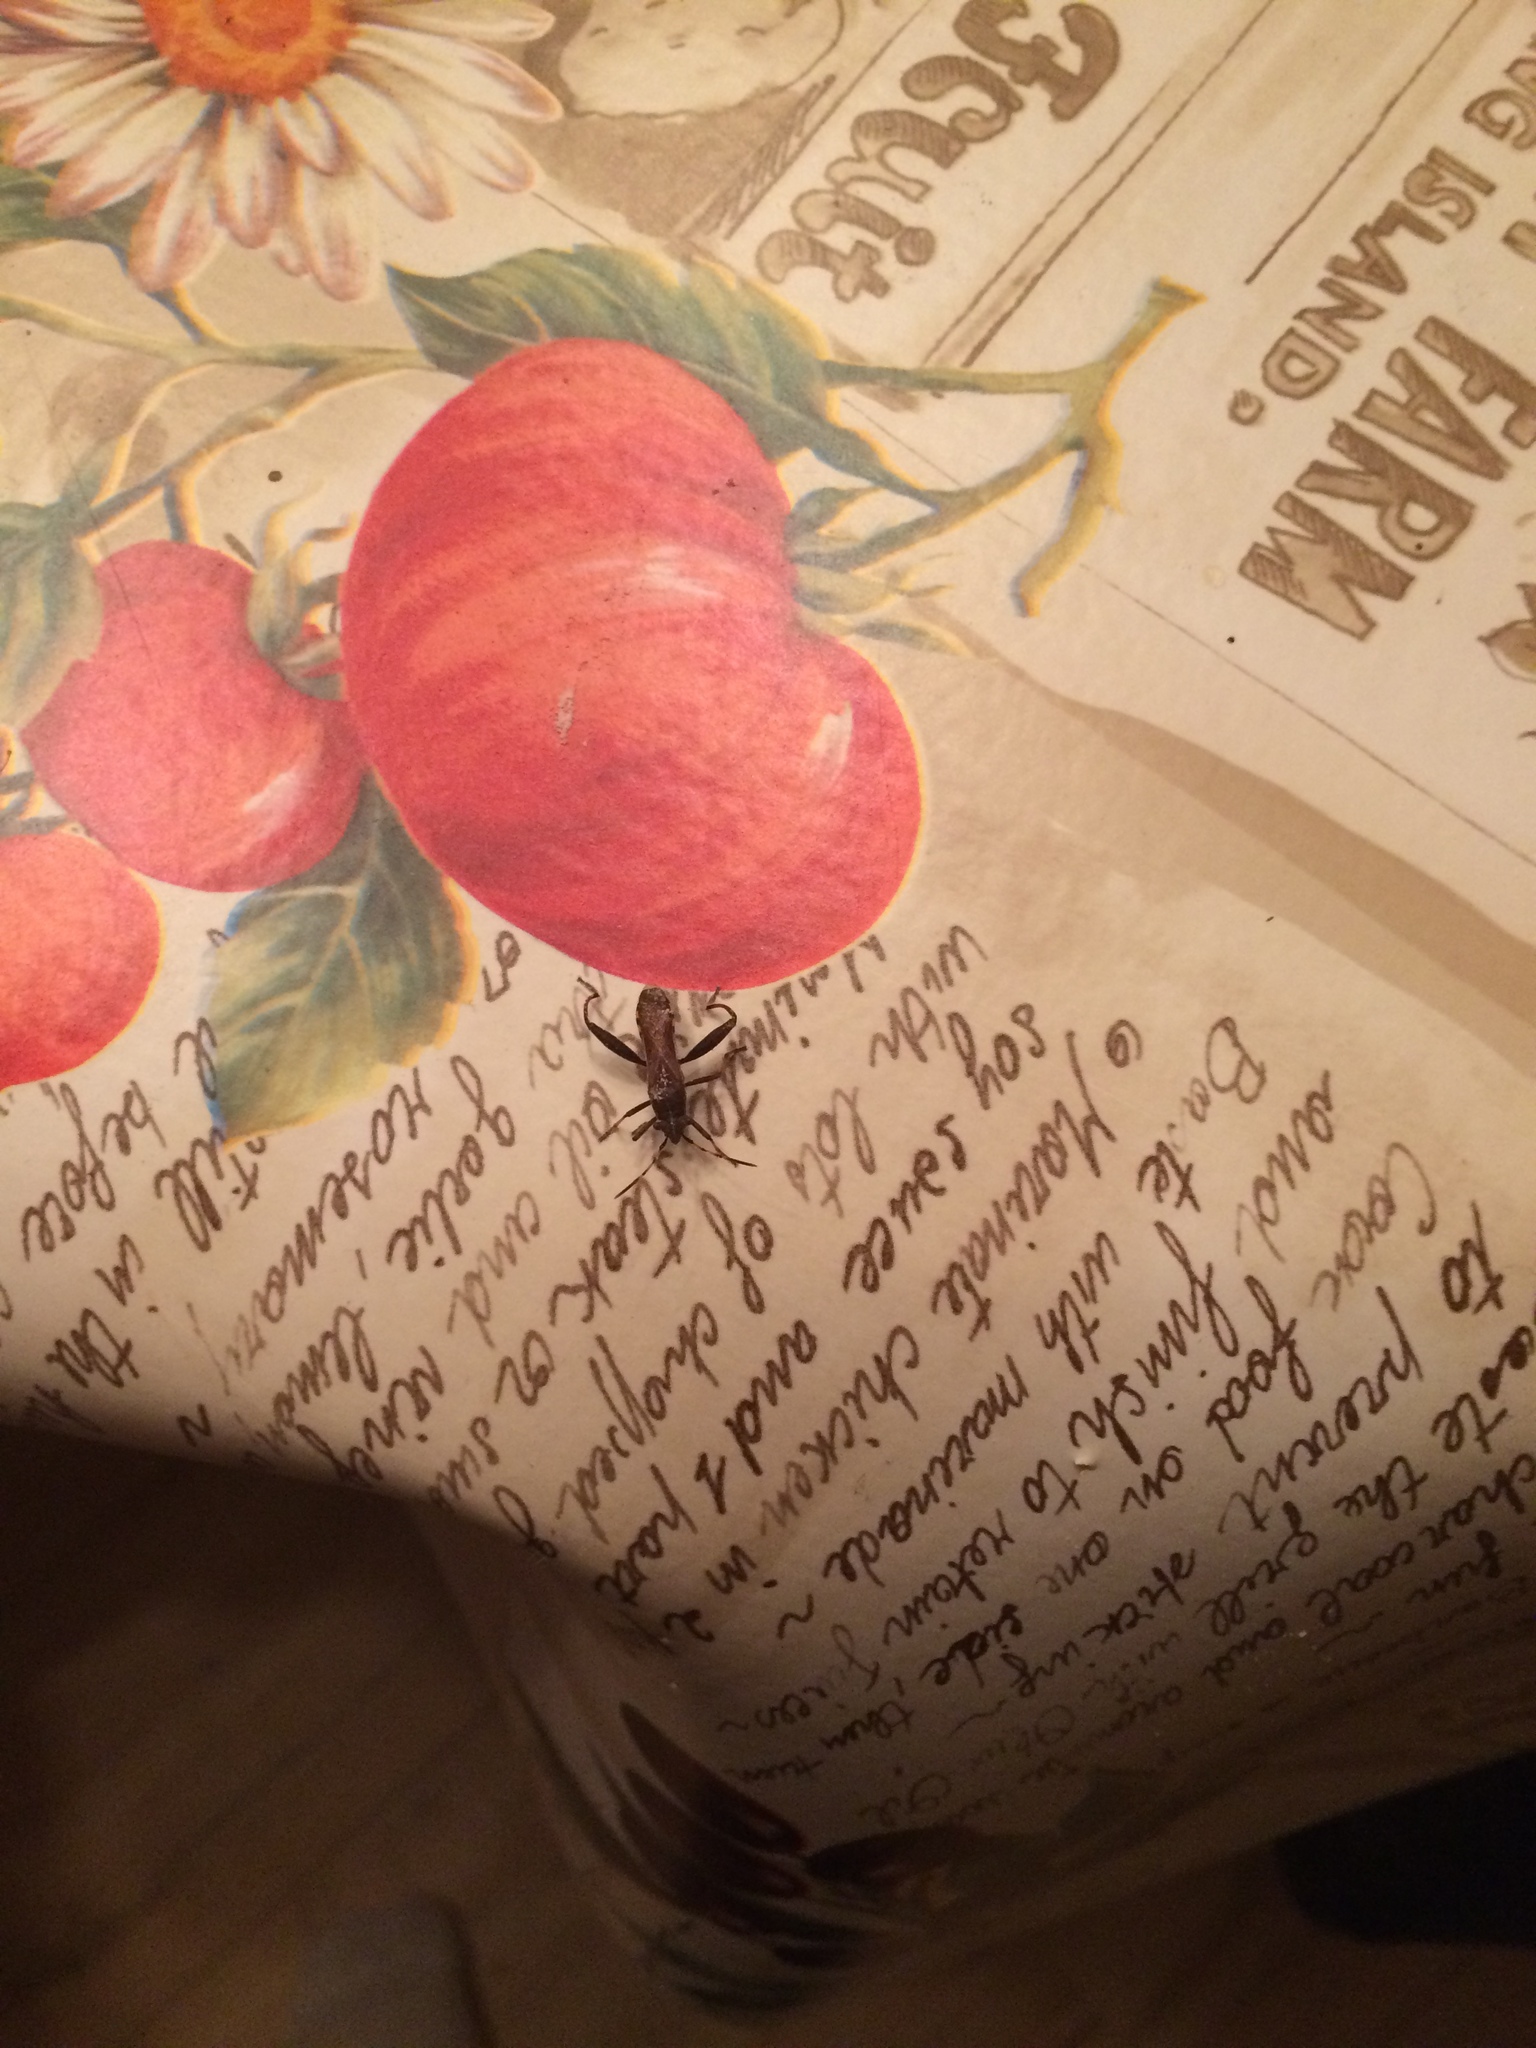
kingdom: Animalia
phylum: Arthropoda
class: Insecta
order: Hemiptera
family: Alydidae
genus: Camptopus
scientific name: Camptopus lateralis
